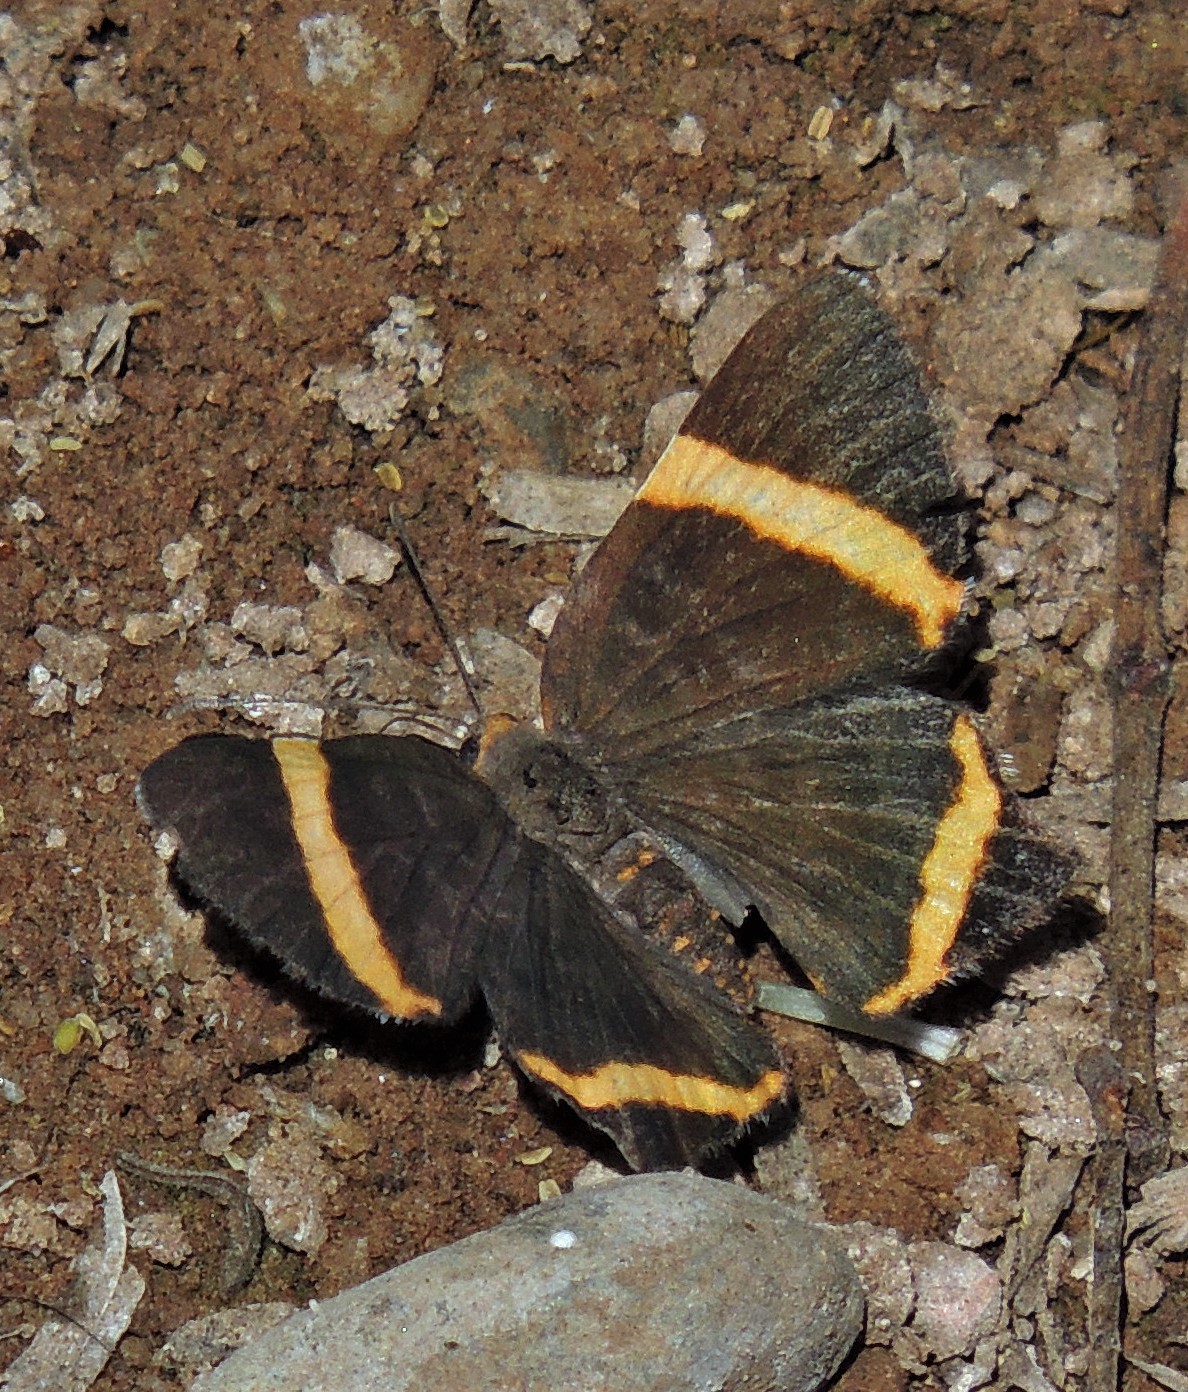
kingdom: Animalia
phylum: Arthropoda
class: Insecta
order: Lepidoptera
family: Riodinidae
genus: Riodina
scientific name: Riodina lysippoides
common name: Little dancer metalmark
